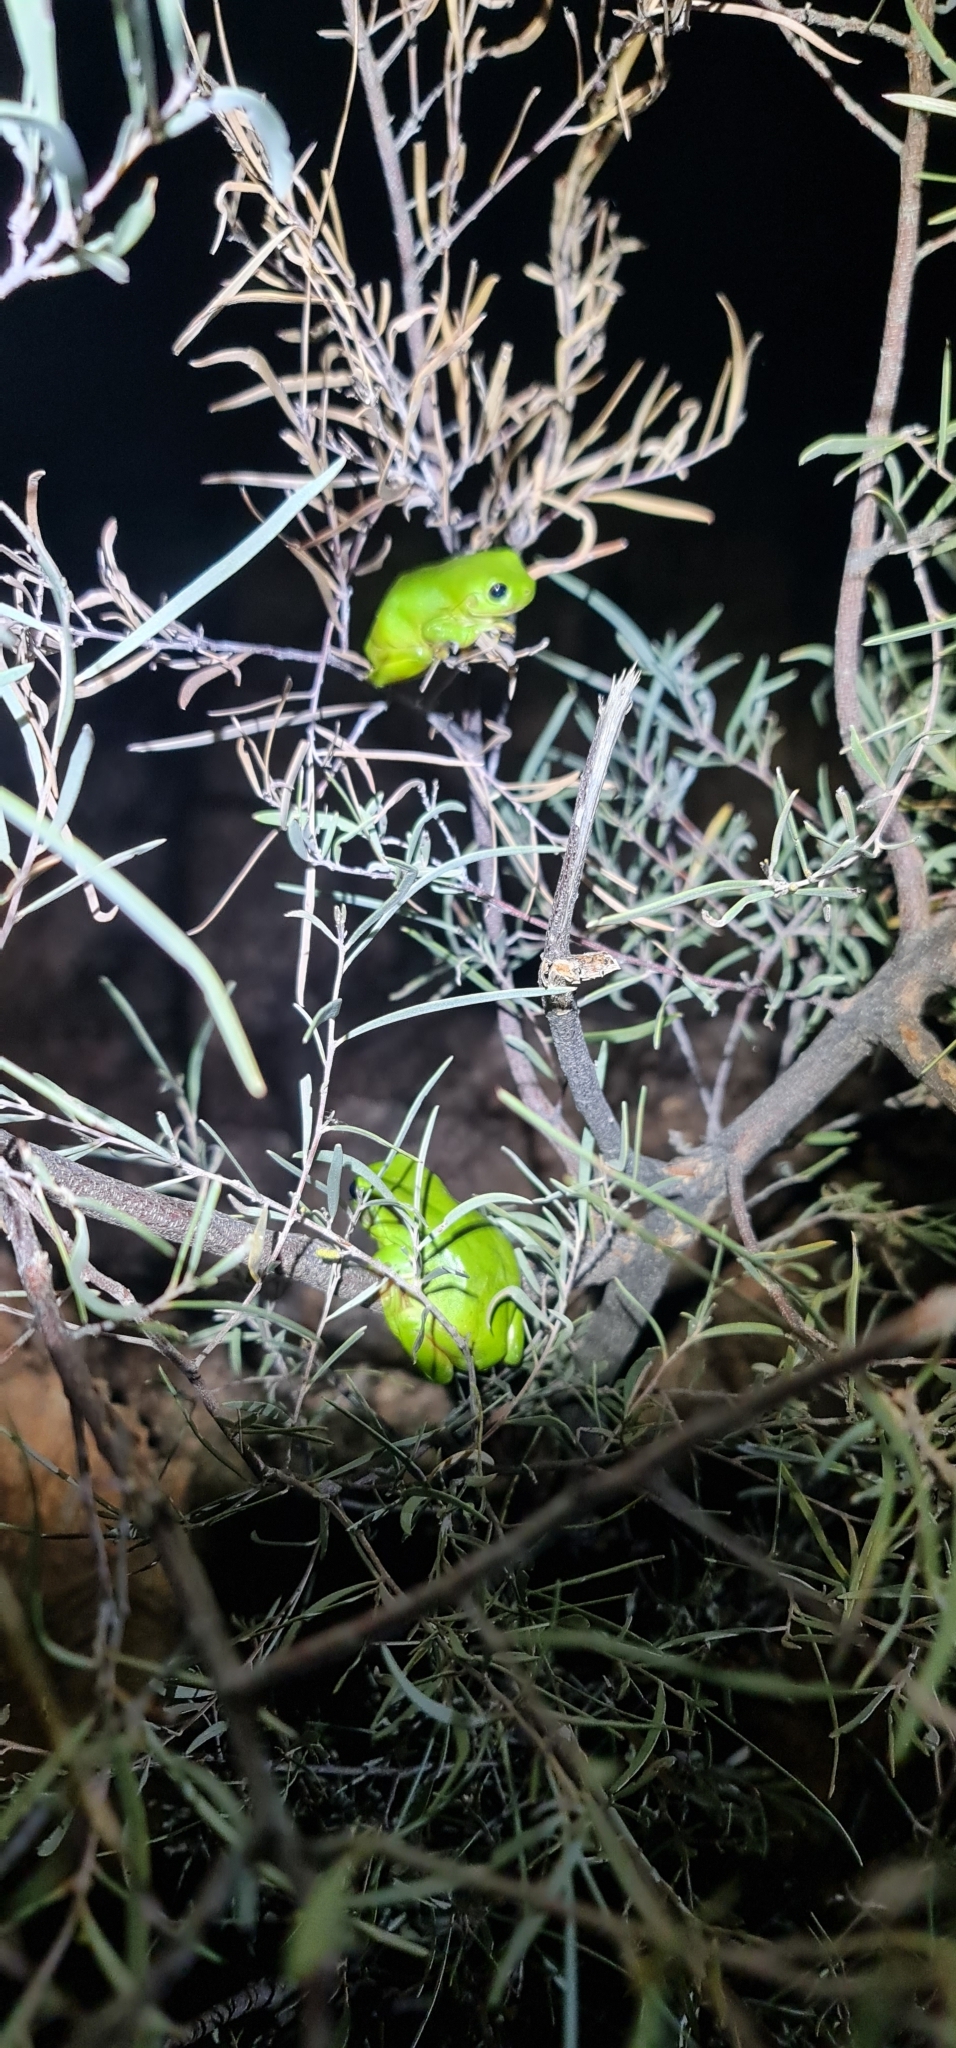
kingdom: Animalia
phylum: Chordata
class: Amphibia
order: Anura
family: Pelodryadidae
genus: Ranoidea
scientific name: Ranoidea caerulea
